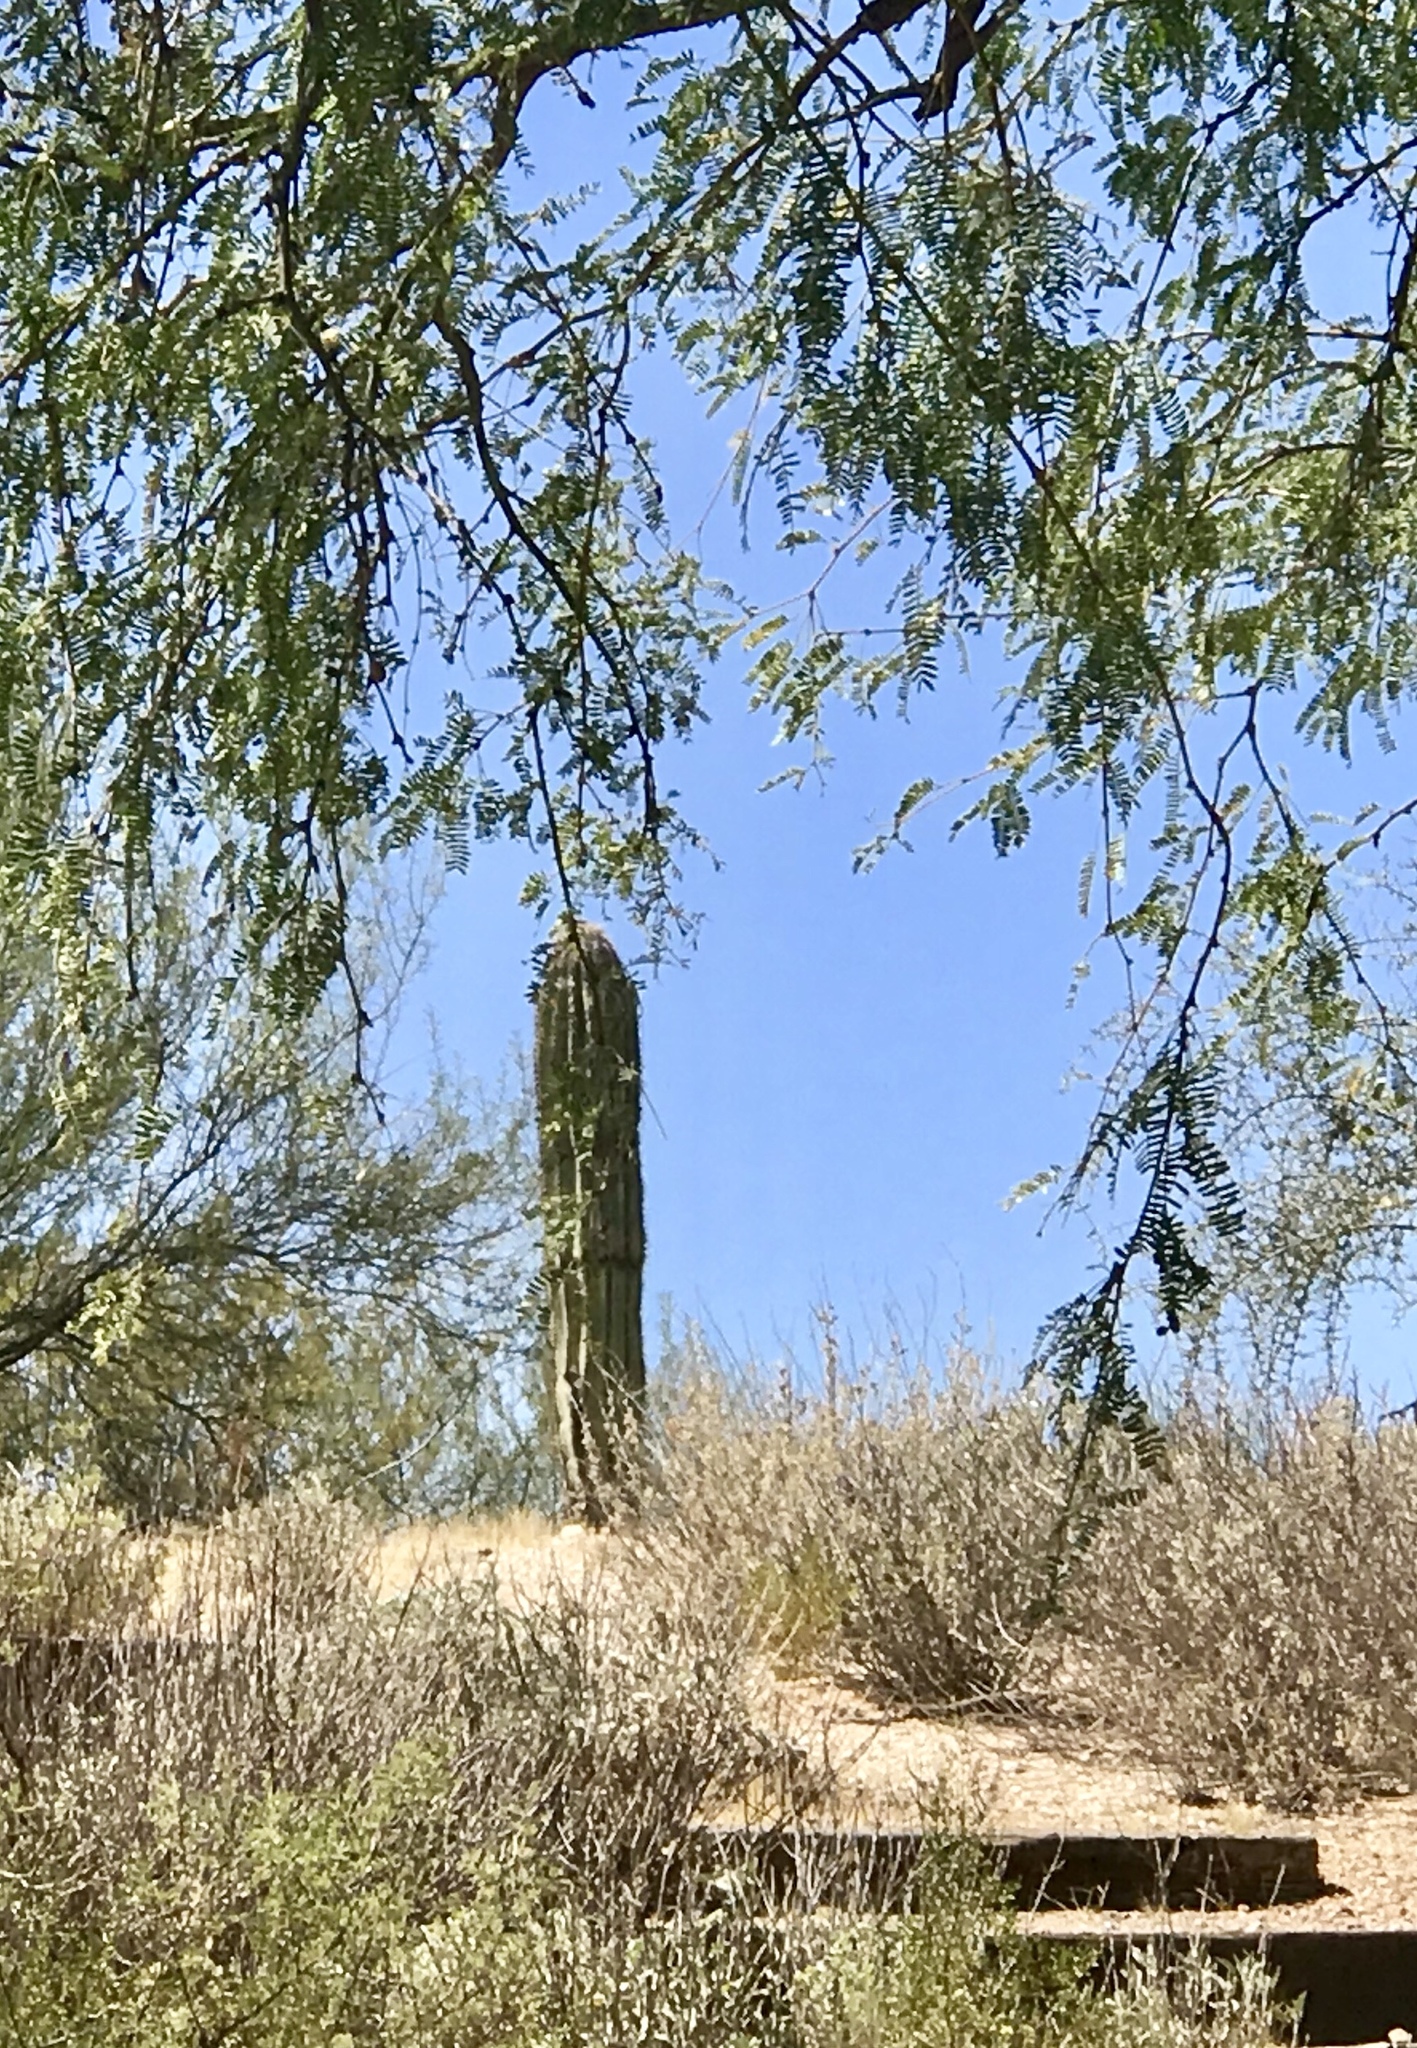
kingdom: Plantae
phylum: Tracheophyta
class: Magnoliopsida
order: Caryophyllales
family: Cactaceae
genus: Carnegiea
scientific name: Carnegiea gigantea
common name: Saguaro
